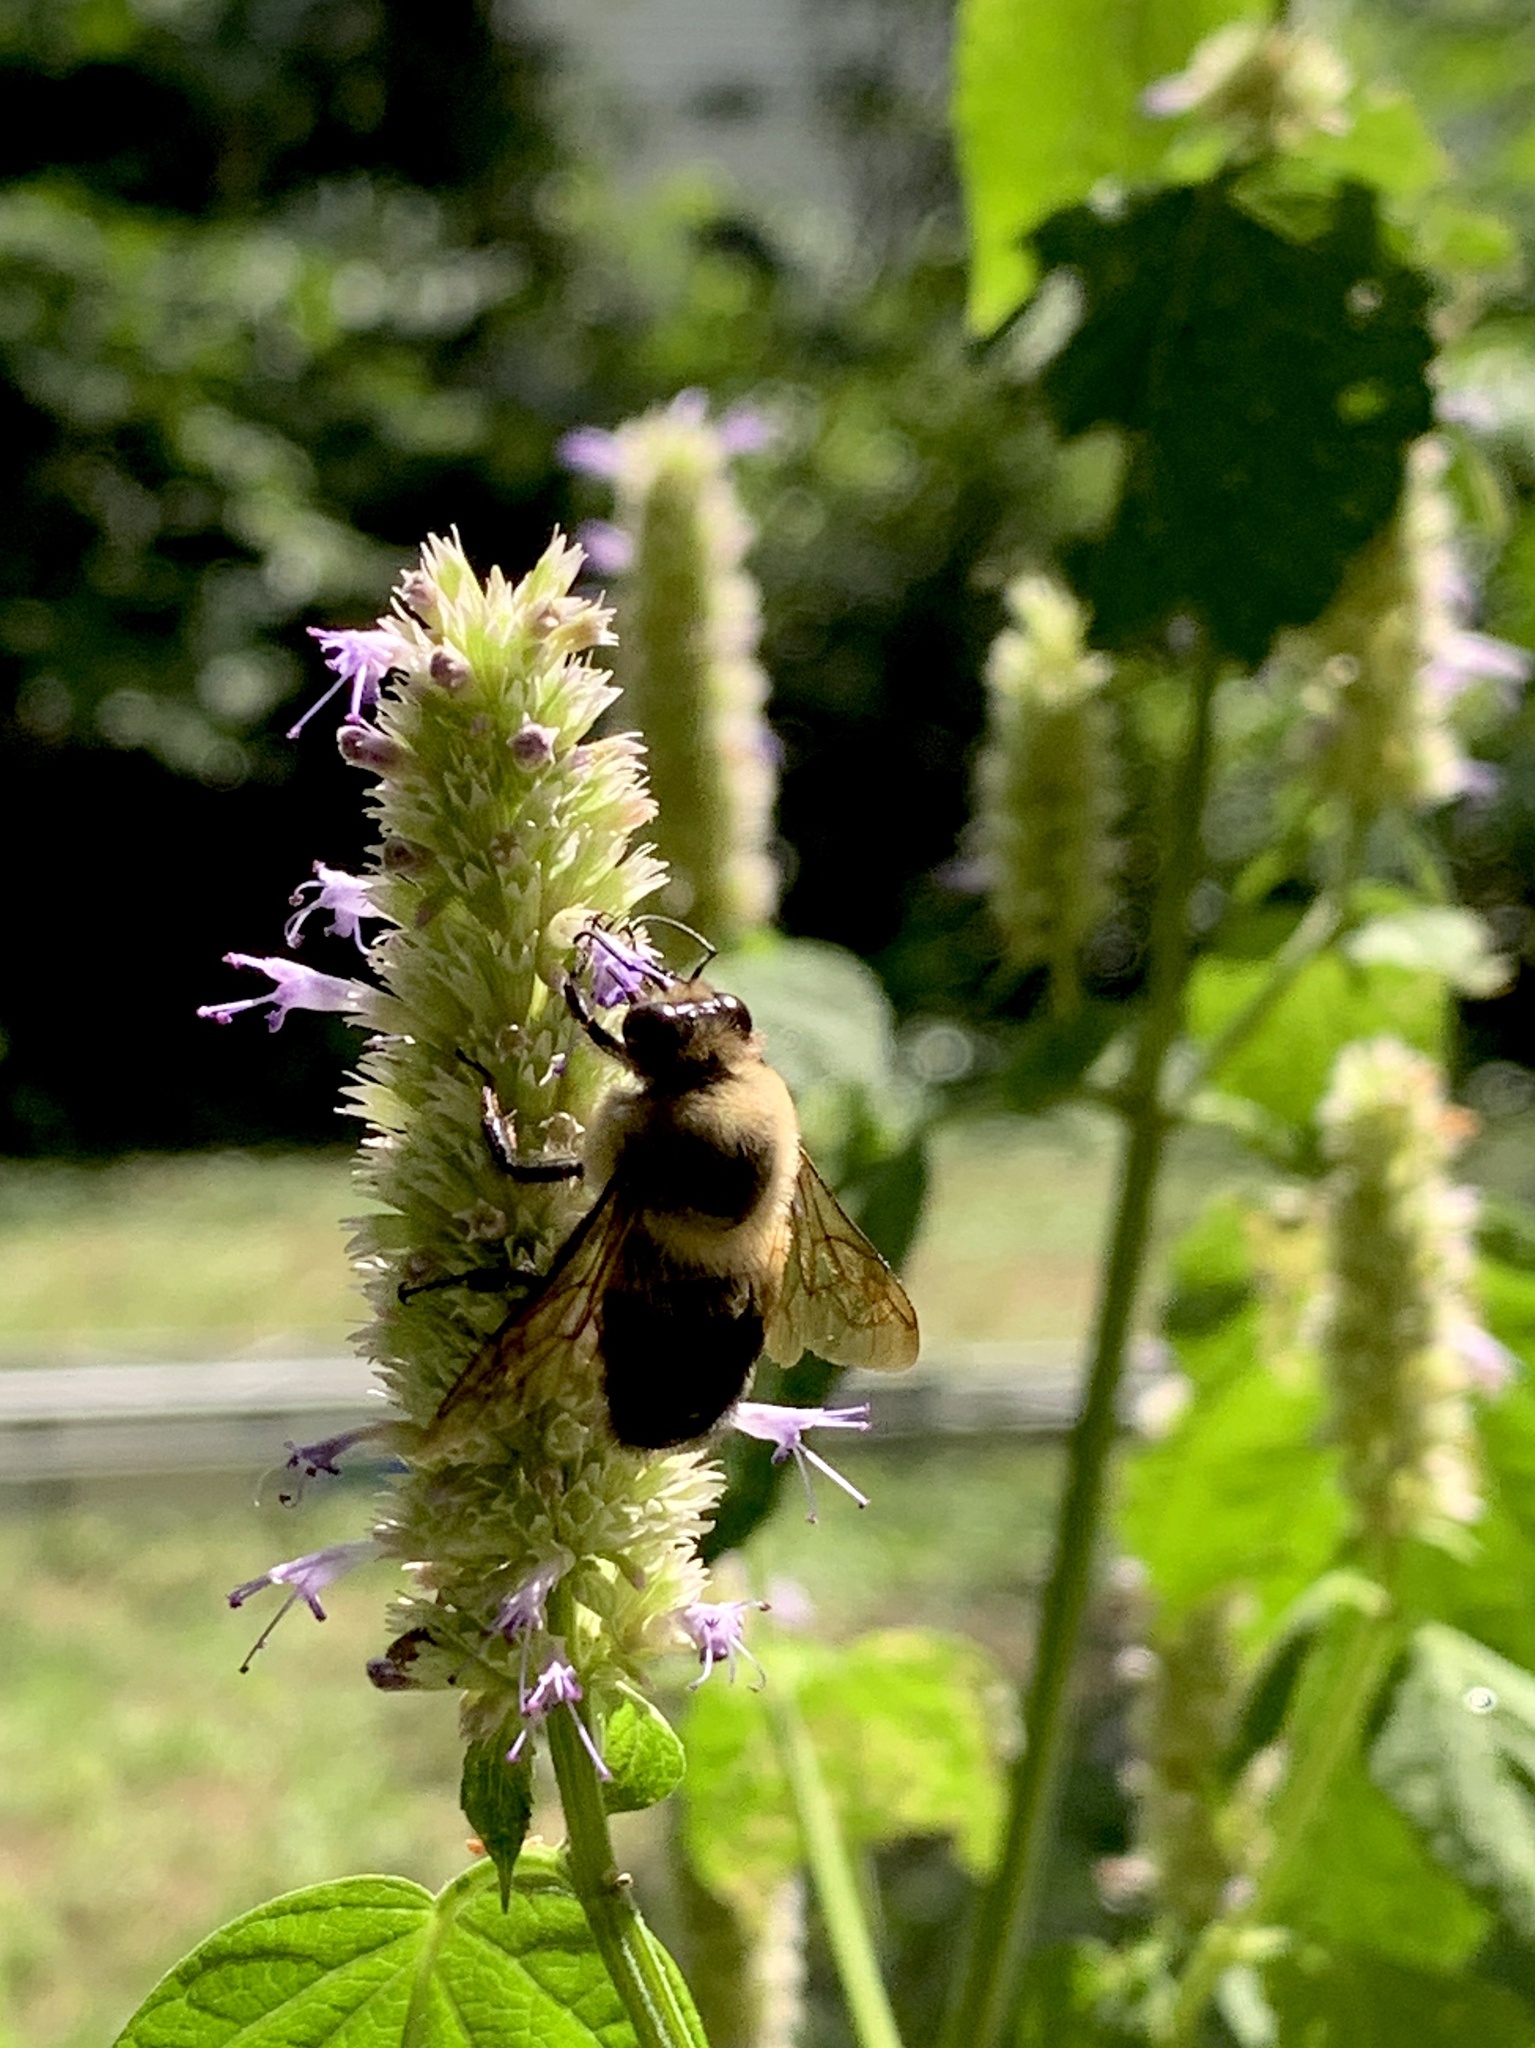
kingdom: Animalia
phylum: Arthropoda
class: Insecta
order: Hymenoptera
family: Apidae
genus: Bombus
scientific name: Bombus griseocollis
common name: Brown-belted bumble bee
